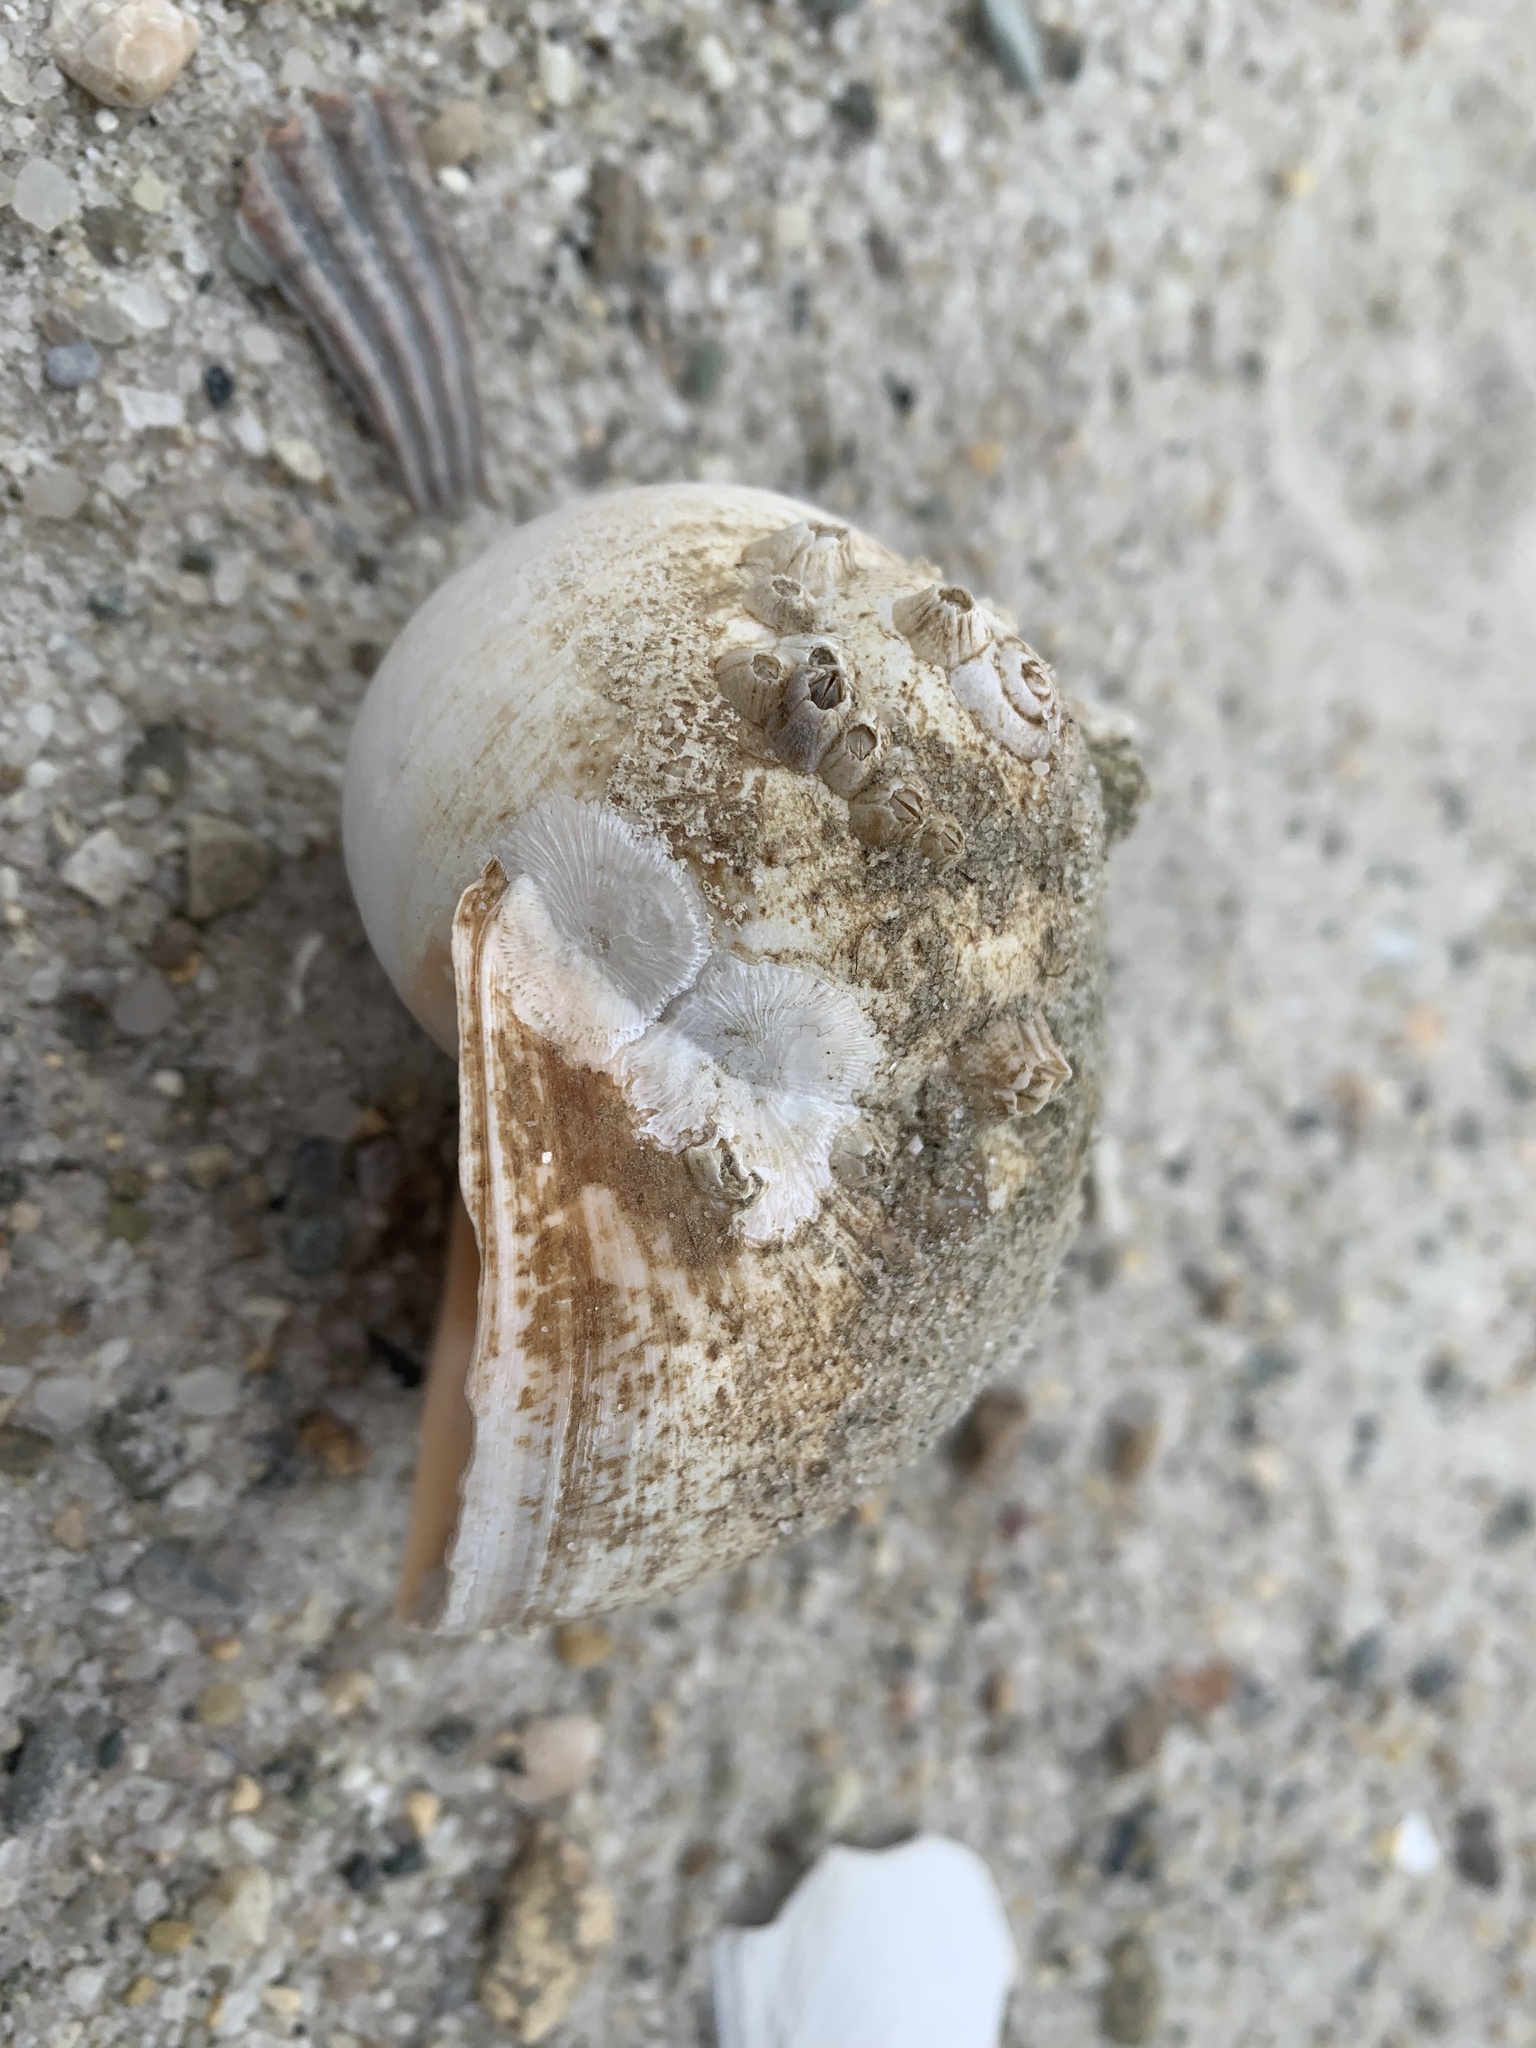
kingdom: Animalia
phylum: Mollusca
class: Gastropoda
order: Littorinimorpha
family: Naticidae
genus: Euspira
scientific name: Euspira heros
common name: Common northern moonsnail
